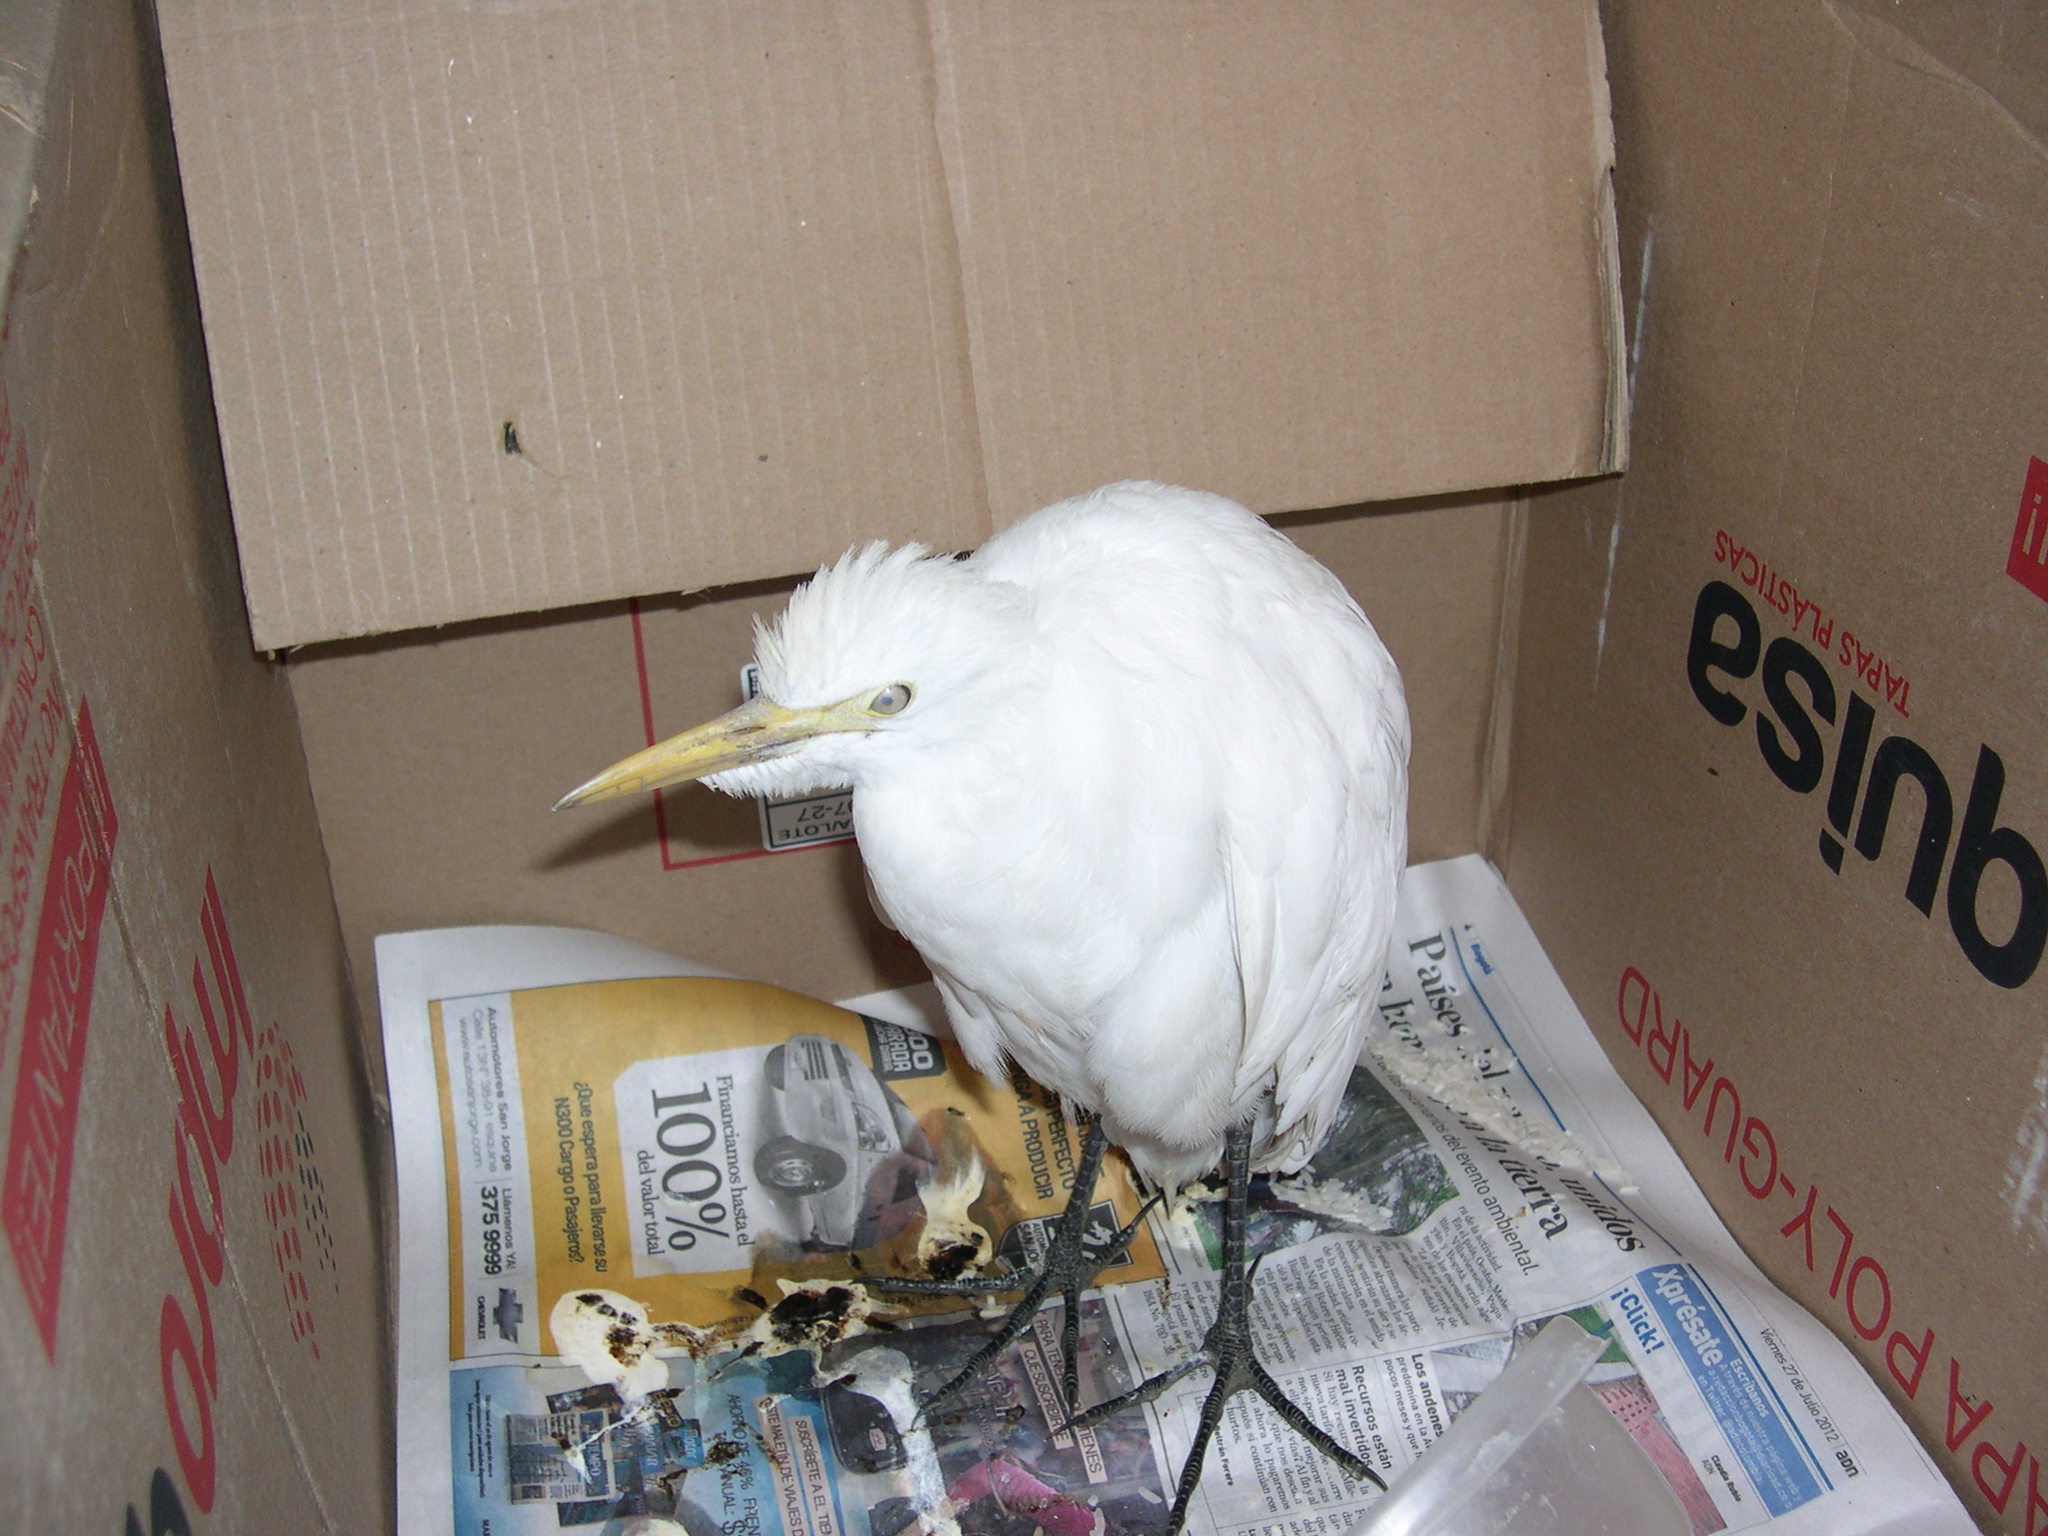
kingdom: Animalia
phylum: Chordata
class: Aves
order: Pelecaniformes
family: Ardeidae
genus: Bubulcus
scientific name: Bubulcus ibis
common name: Cattle egret
